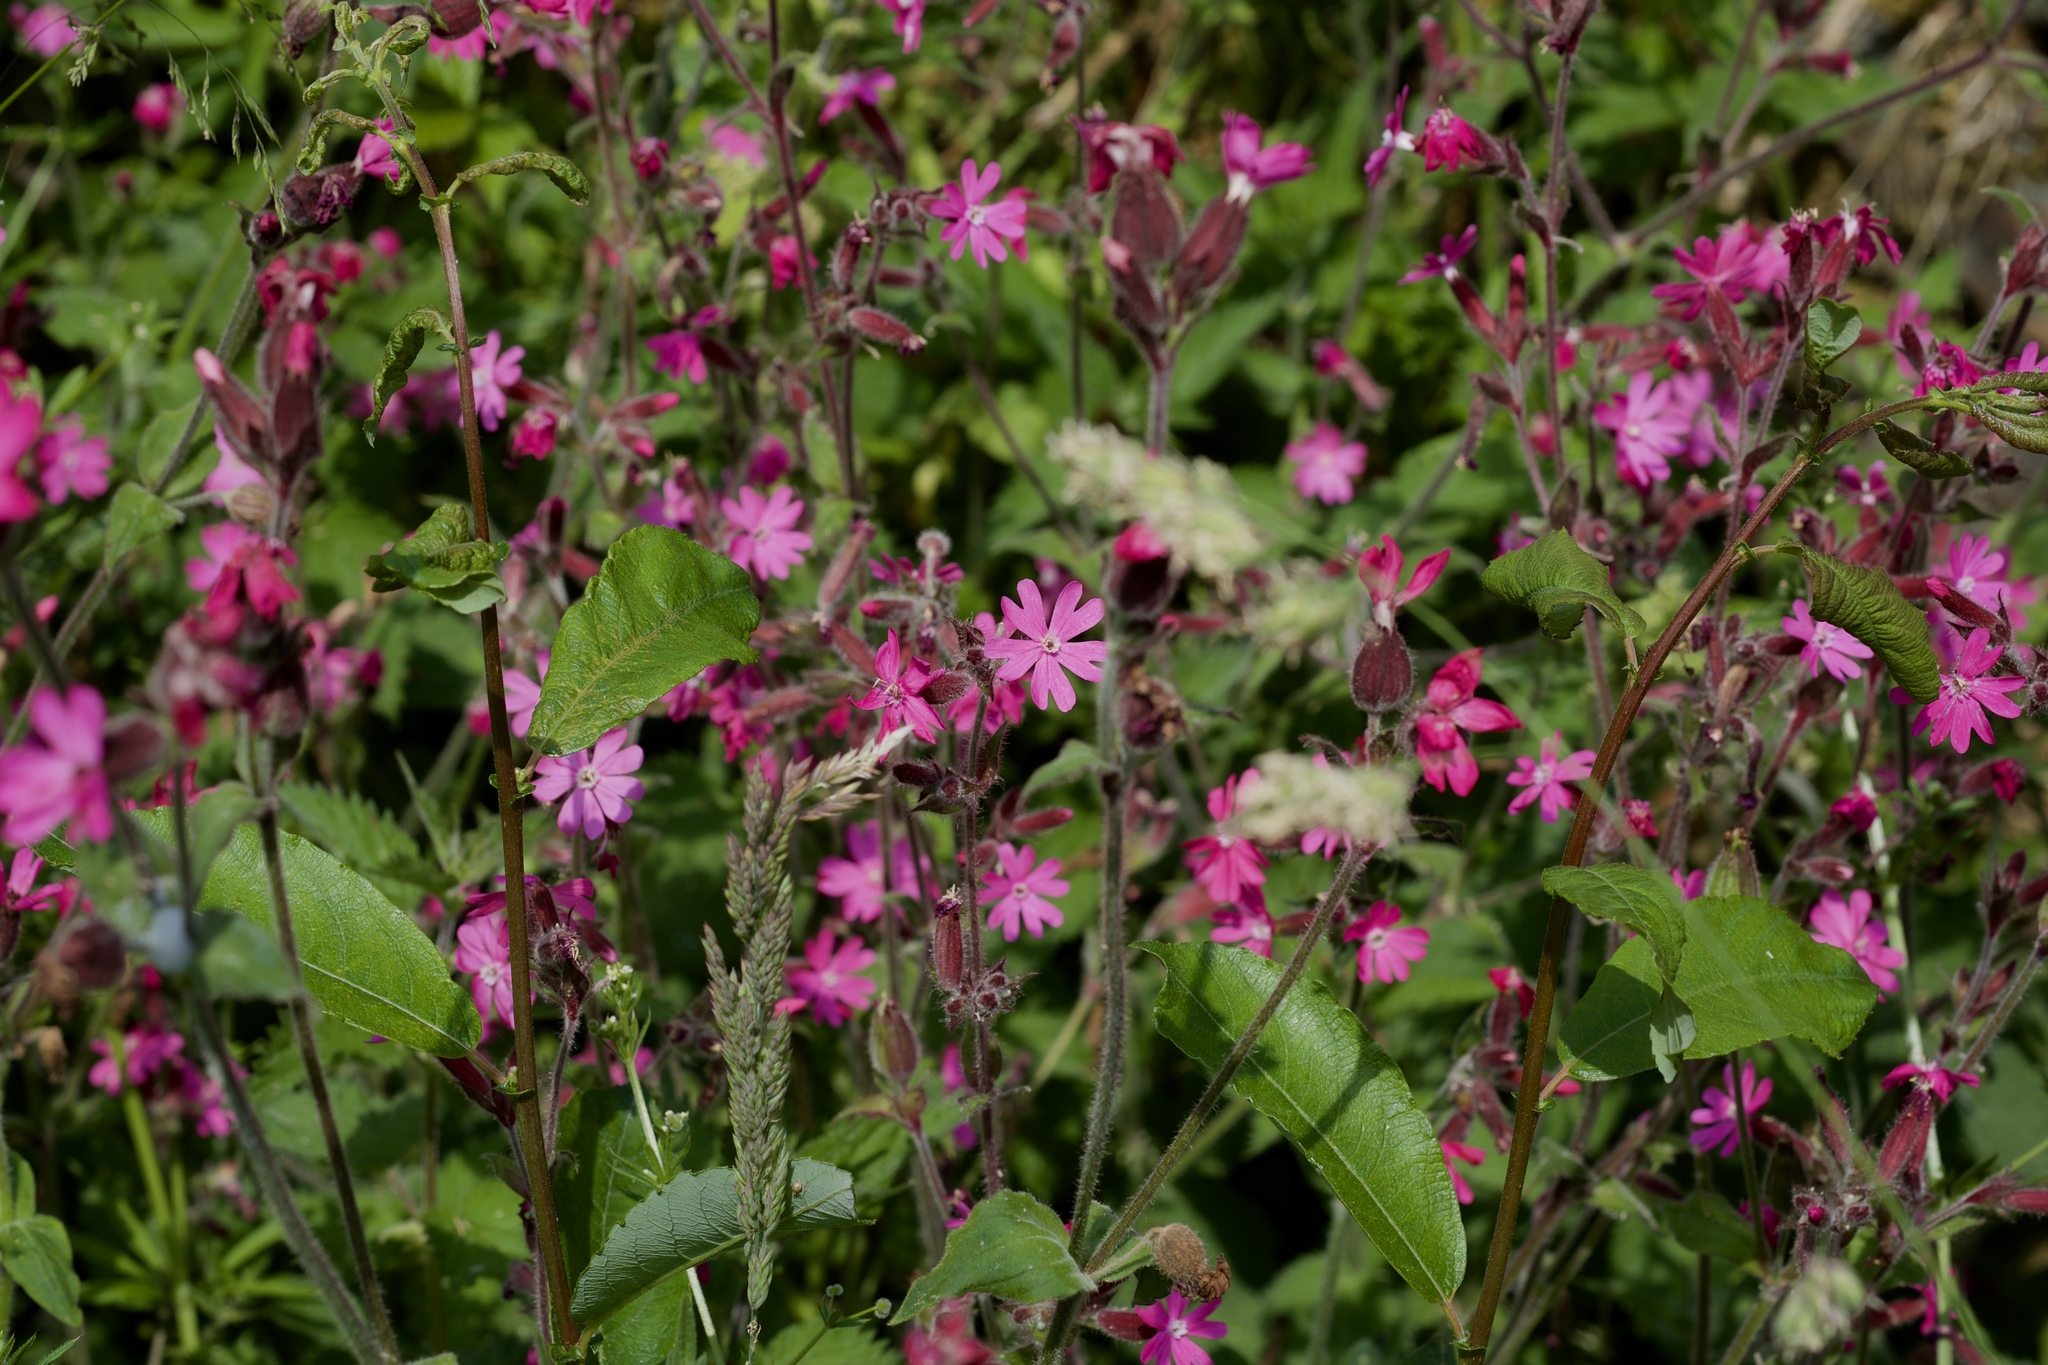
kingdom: Plantae
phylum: Tracheophyta
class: Magnoliopsida
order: Caryophyllales
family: Caryophyllaceae
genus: Silene
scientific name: Silene dioica
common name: Red campion
